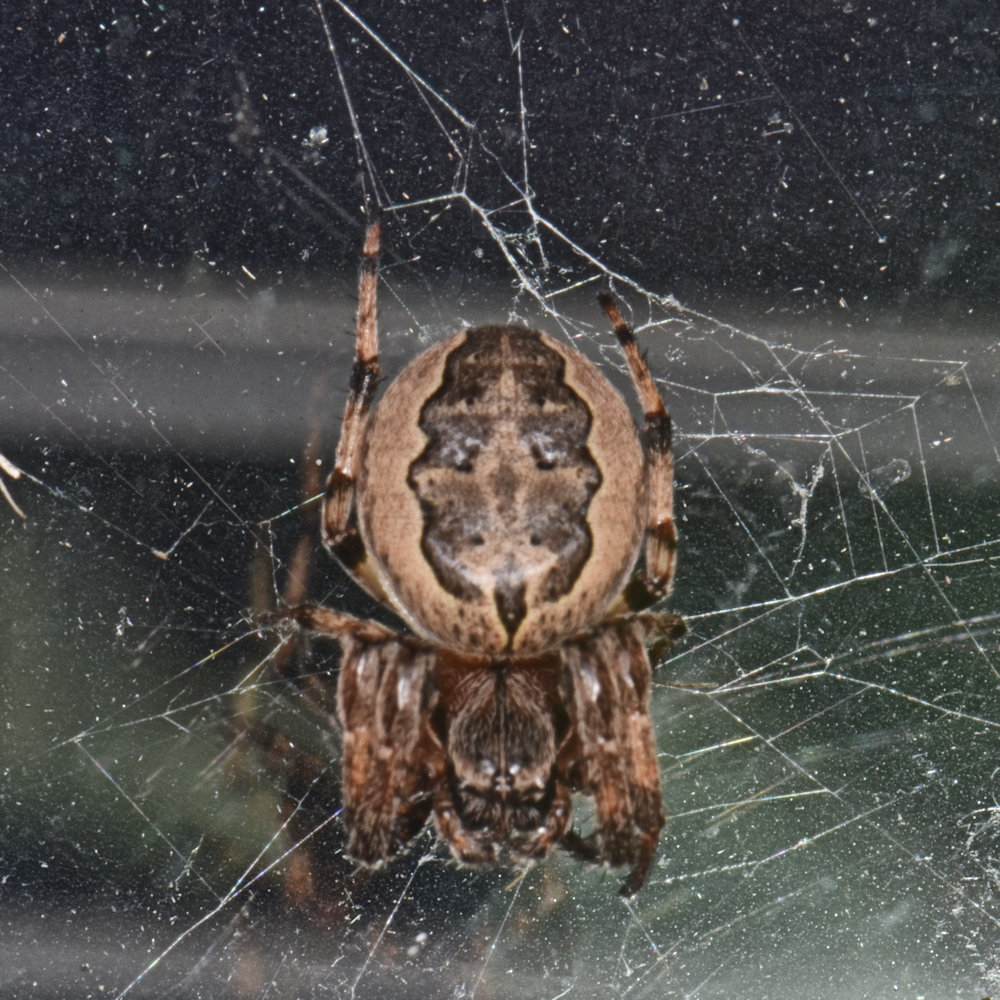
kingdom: Animalia
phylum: Arthropoda
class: Arachnida
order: Araneae
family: Araneidae
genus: Larinioides
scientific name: Larinioides cornutus
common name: Furrow orbweaver
